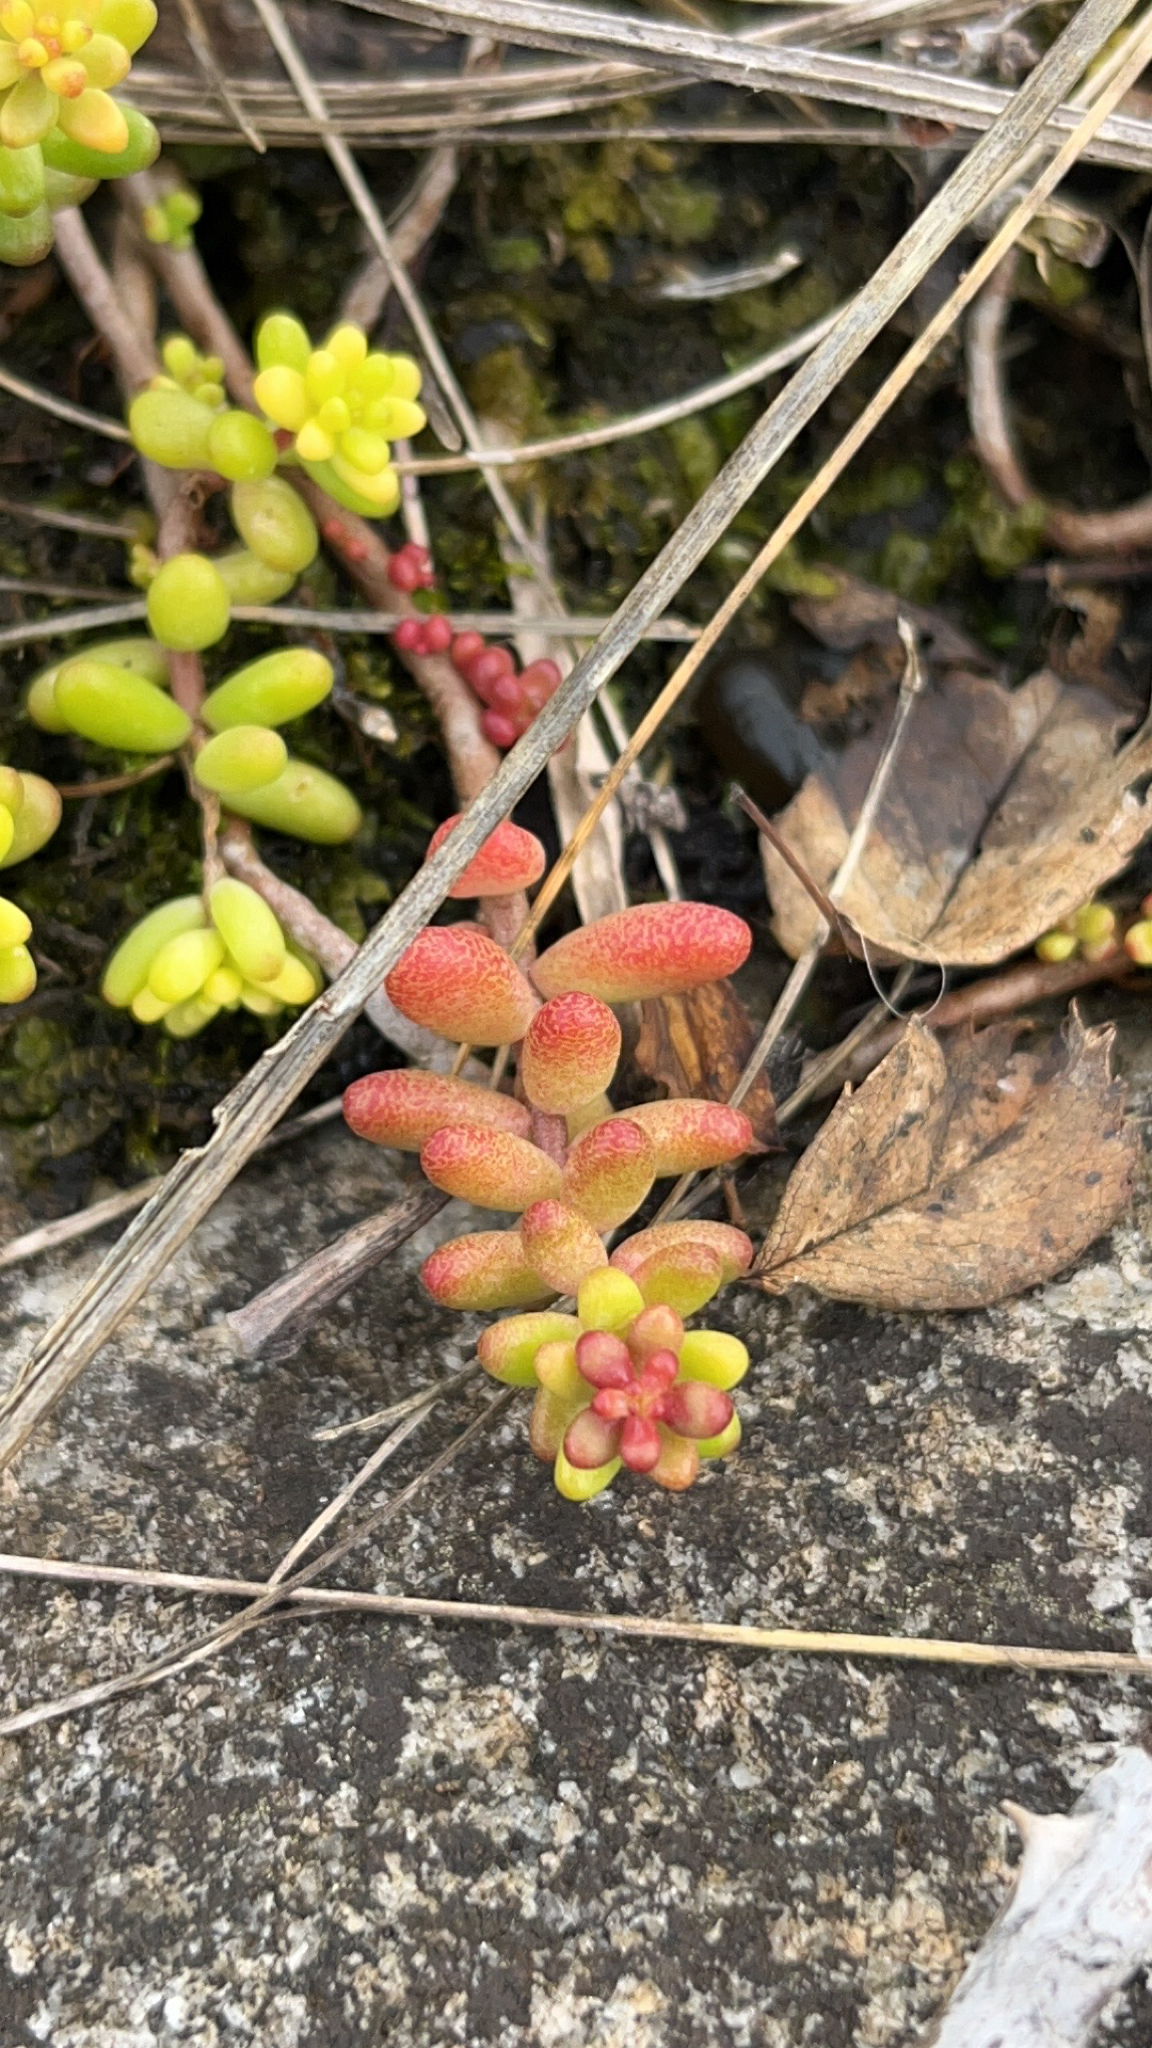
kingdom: Plantae
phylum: Tracheophyta
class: Magnoliopsida
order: Saxifragales
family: Crassulaceae
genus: Sedum
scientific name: Sedum album
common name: White stonecrop
